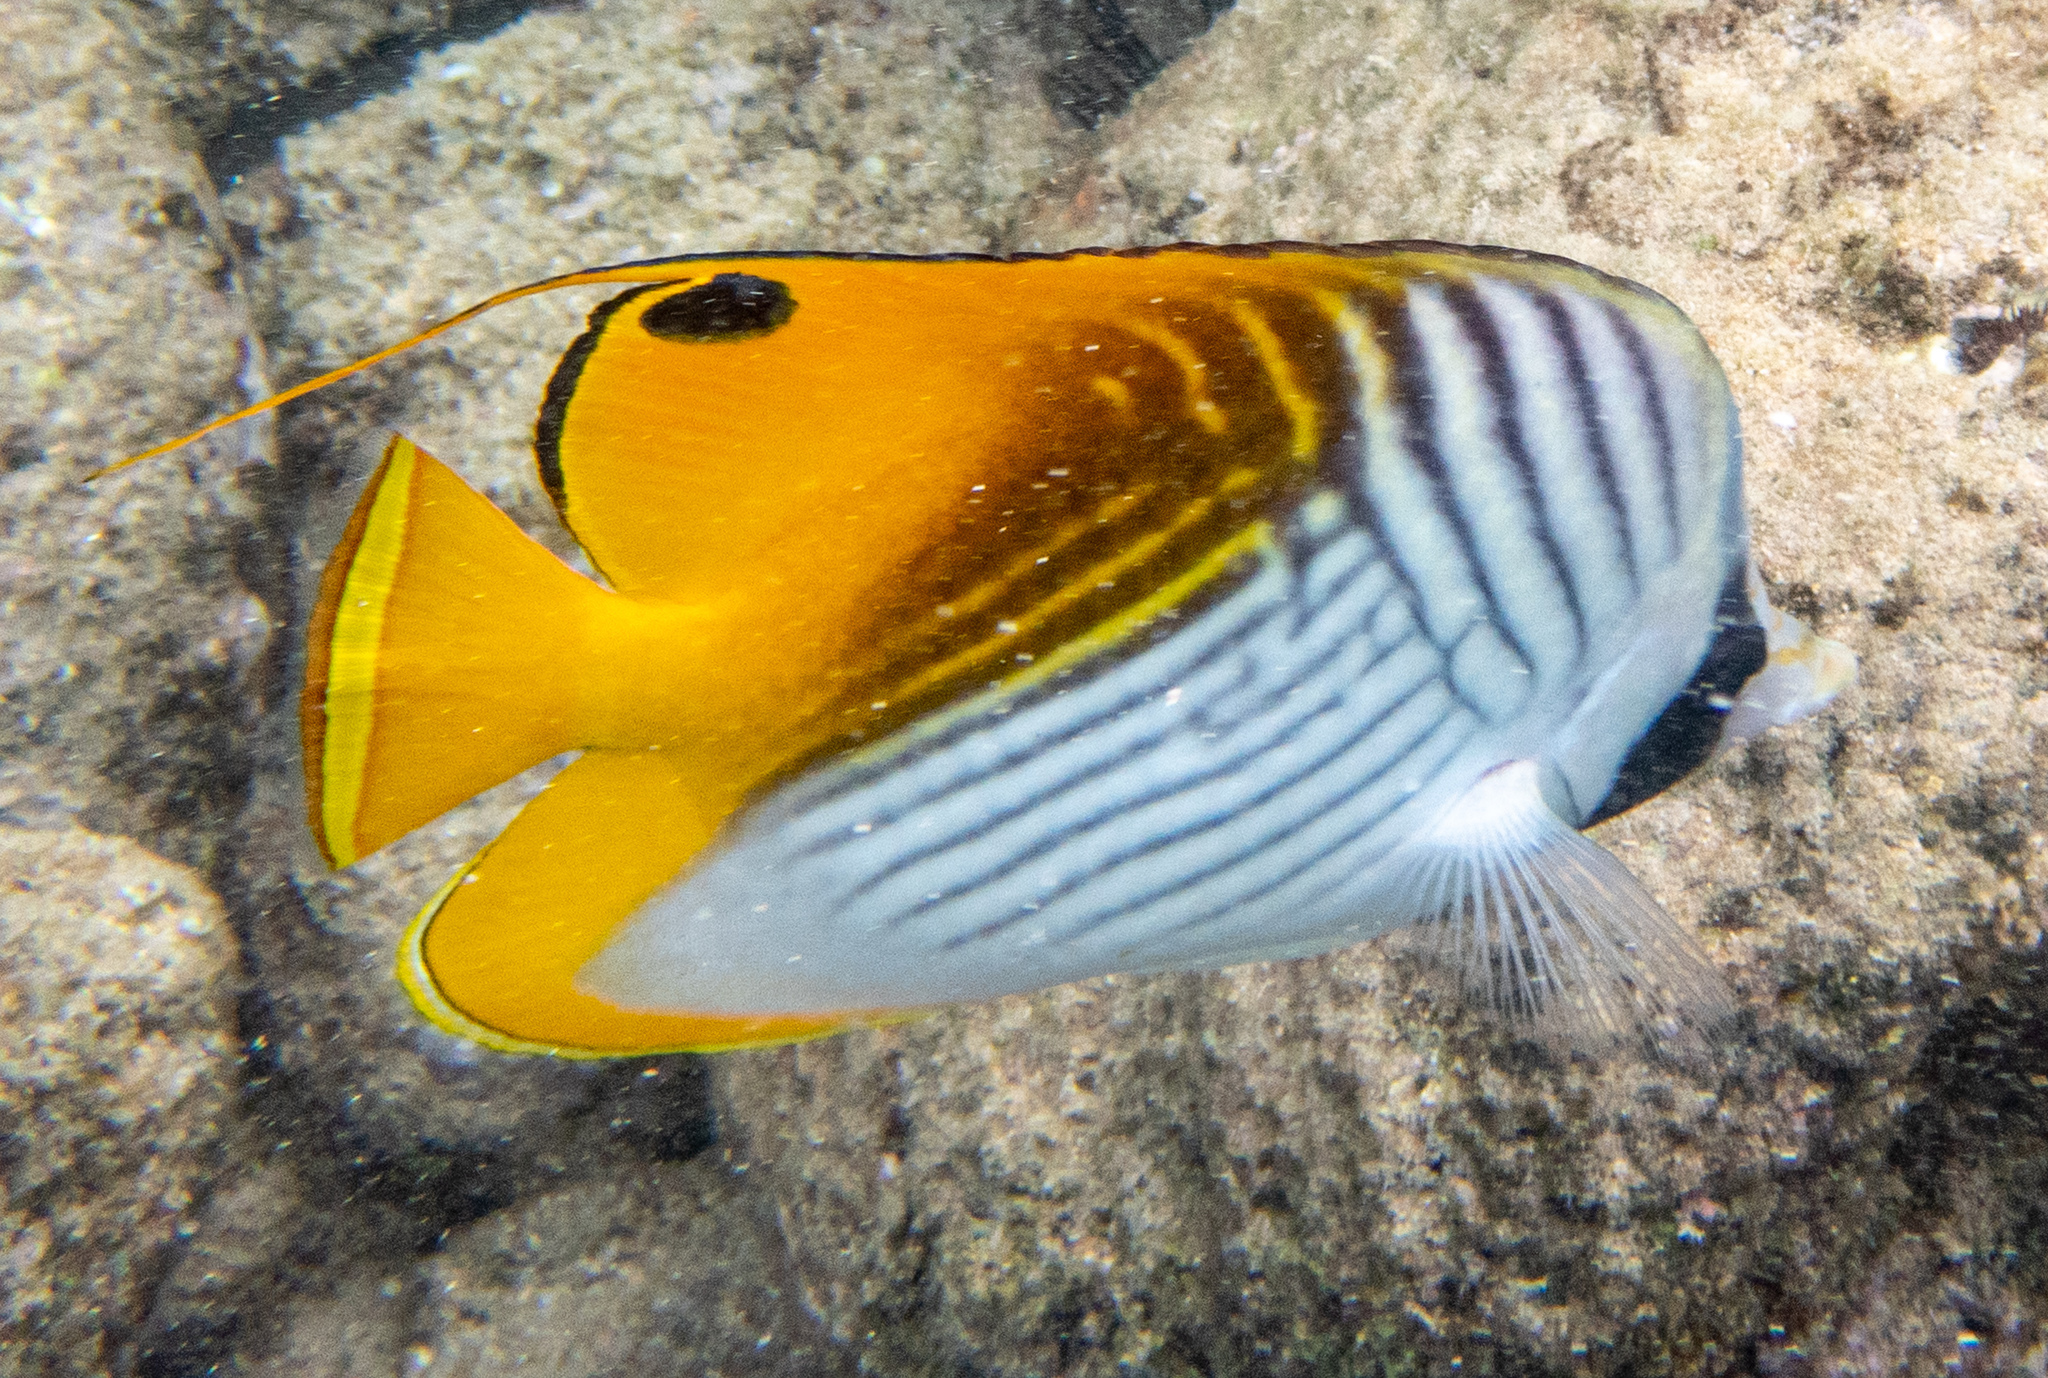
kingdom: Animalia
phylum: Chordata
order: Perciformes
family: Chaetodontidae
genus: Chaetodon
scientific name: Chaetodon auriga
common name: Threadfin butterflyfish
